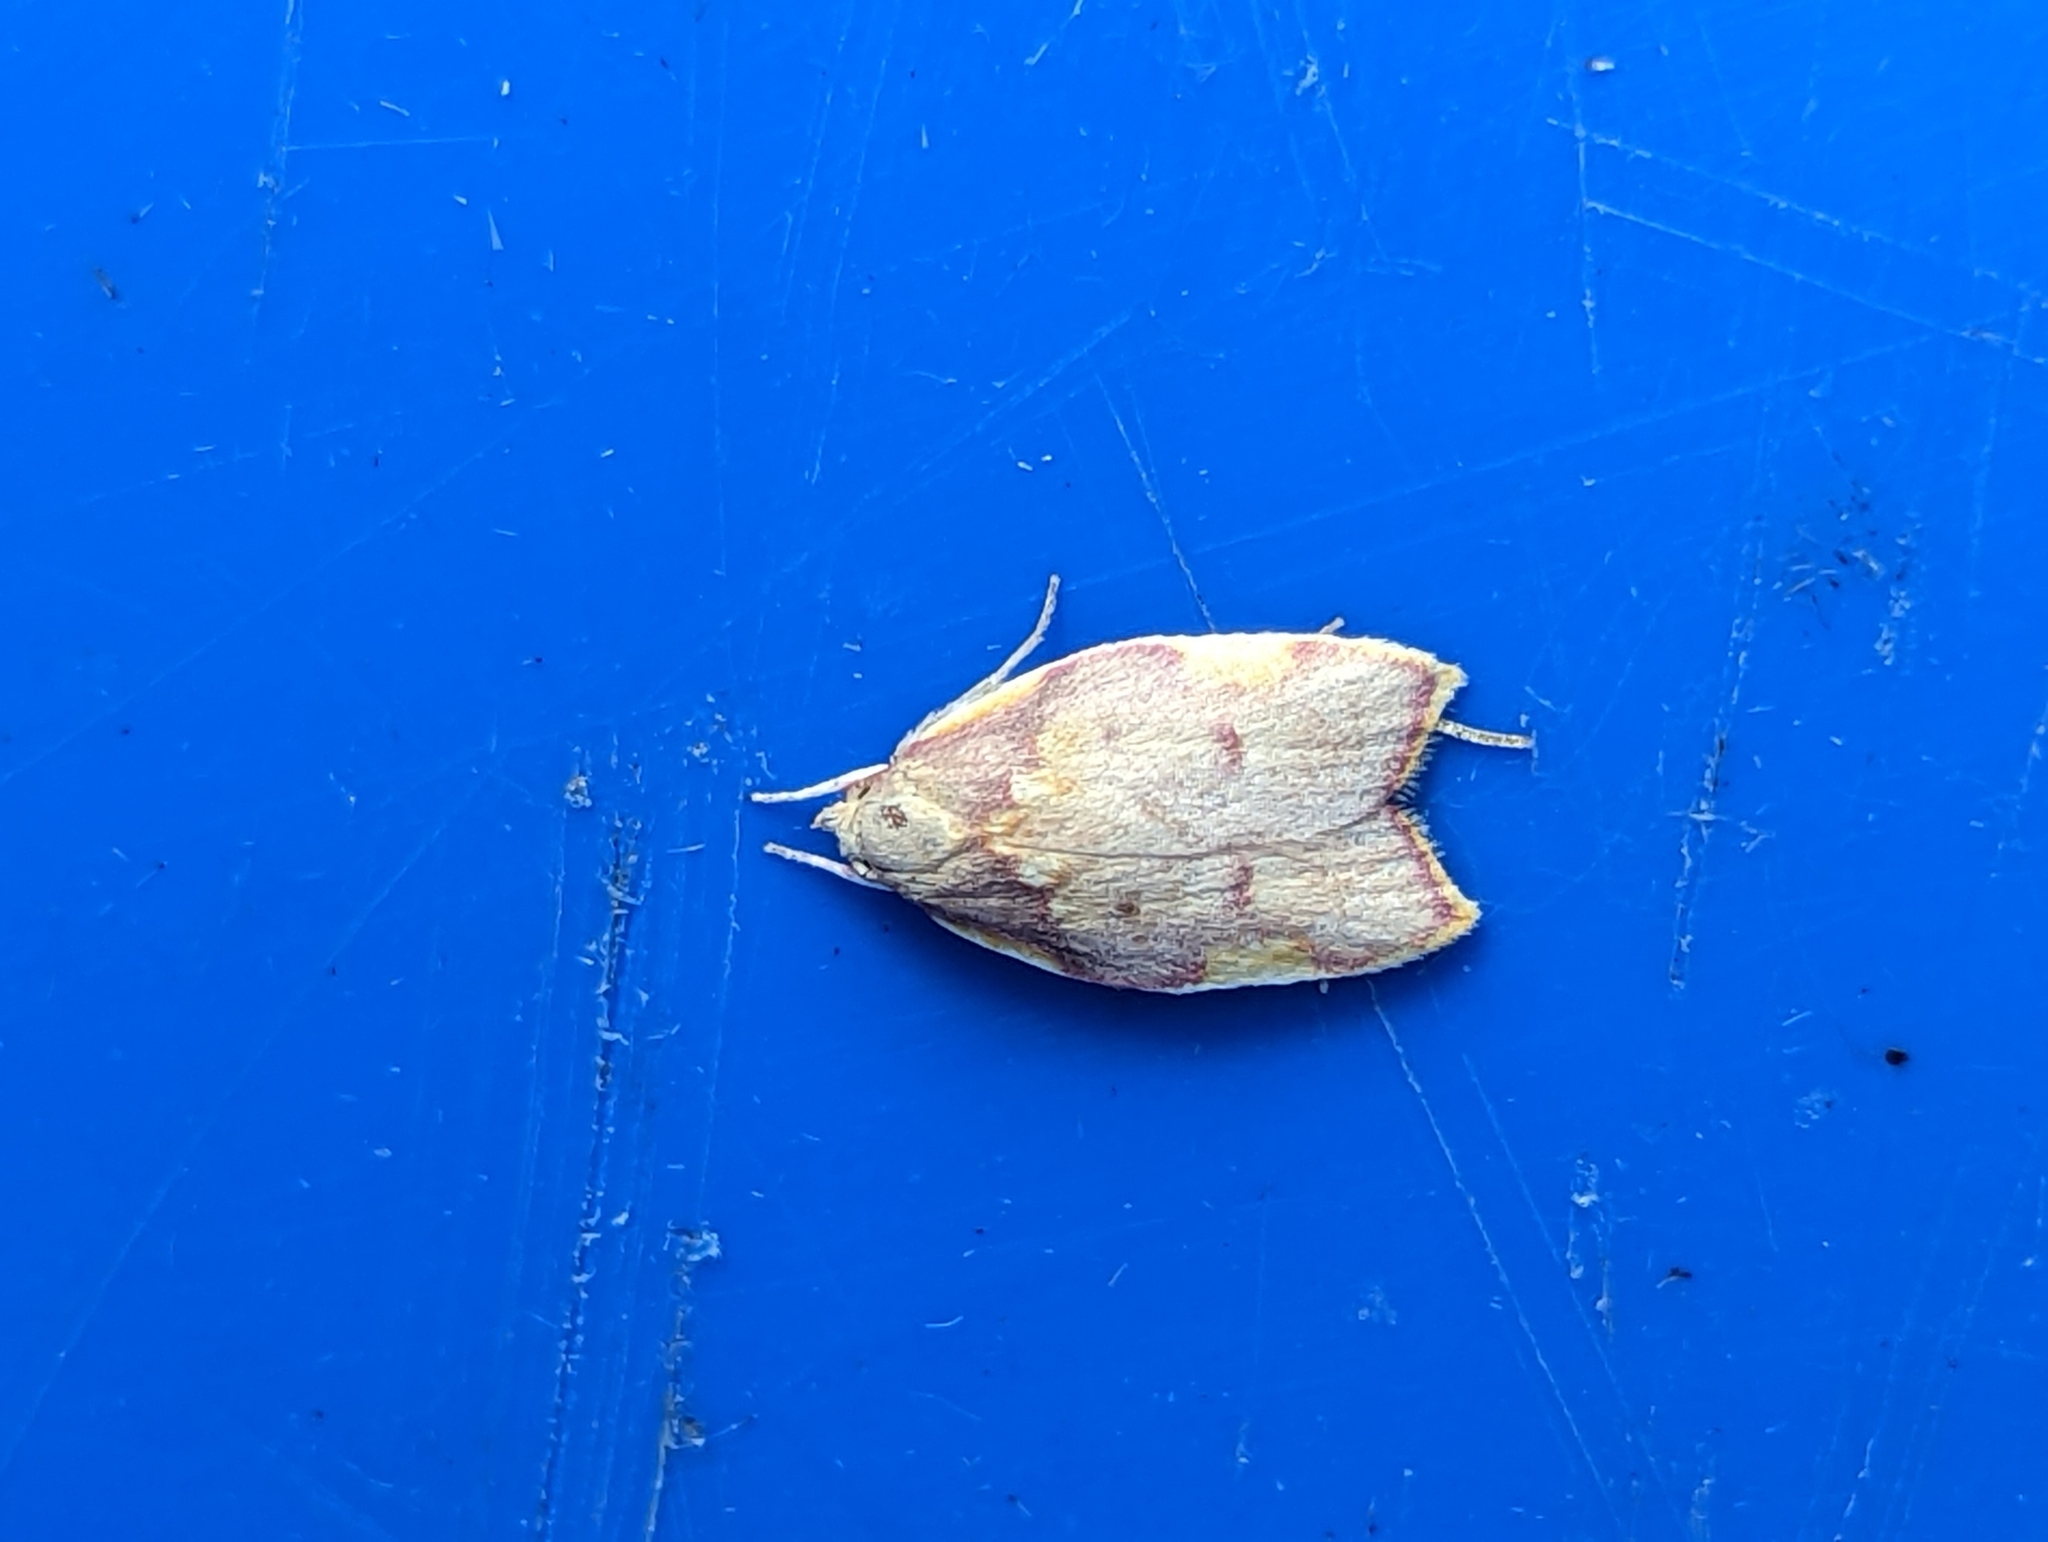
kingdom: Animalia
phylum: Arthropoda
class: Insecta
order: Lepidoptera
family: Peleopodidae
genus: Carcina
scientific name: Carcina quercana
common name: Moth
